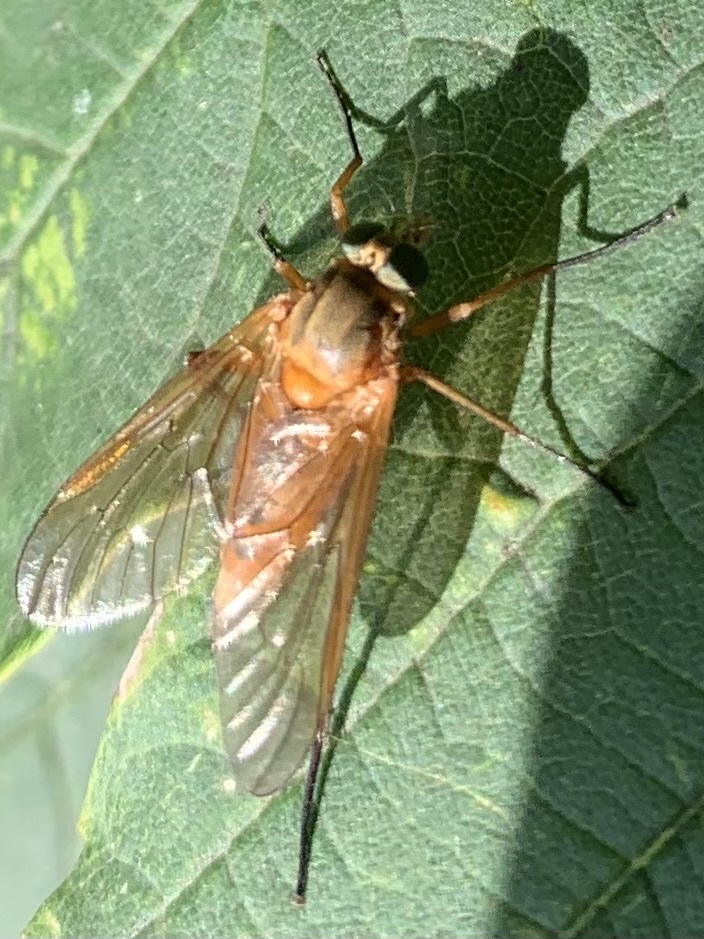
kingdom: Animalia
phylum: Arthropoda
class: Insecta
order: Diptera
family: Rhagionidae
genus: Rhagio
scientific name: Rhagio tringaria
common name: Marsh snipefly
